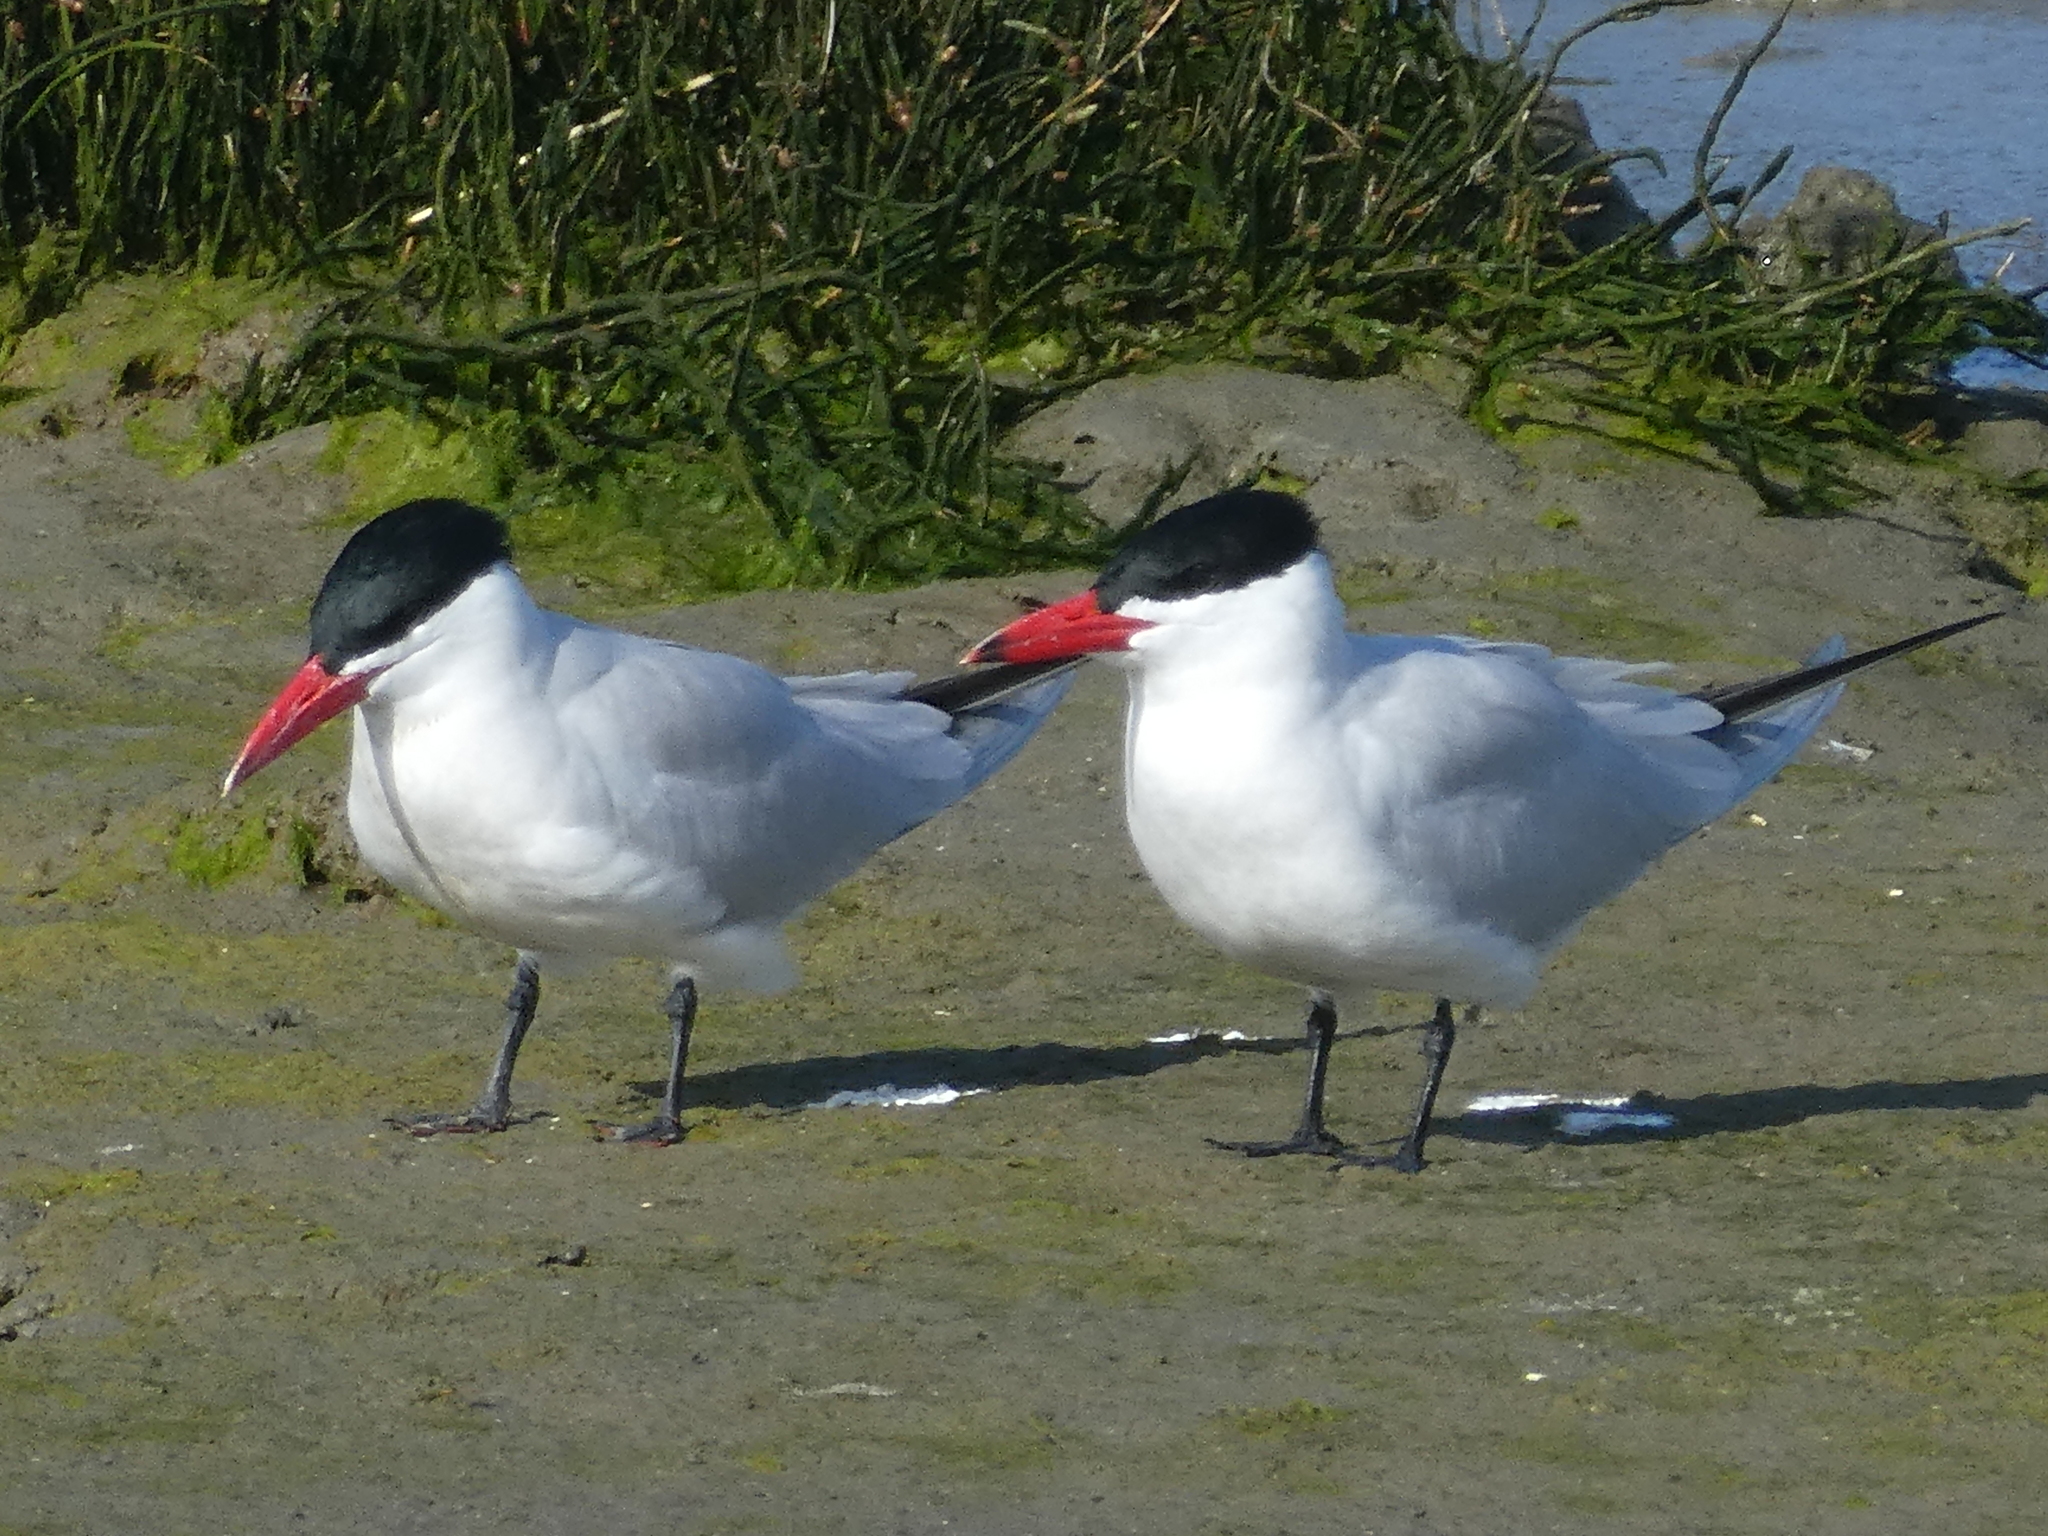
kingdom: Animalia
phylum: Chordata
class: Aves
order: Charadriiformes
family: Laridae
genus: Hydroprogne
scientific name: Hydroprogne caspia
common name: Caspian tern
